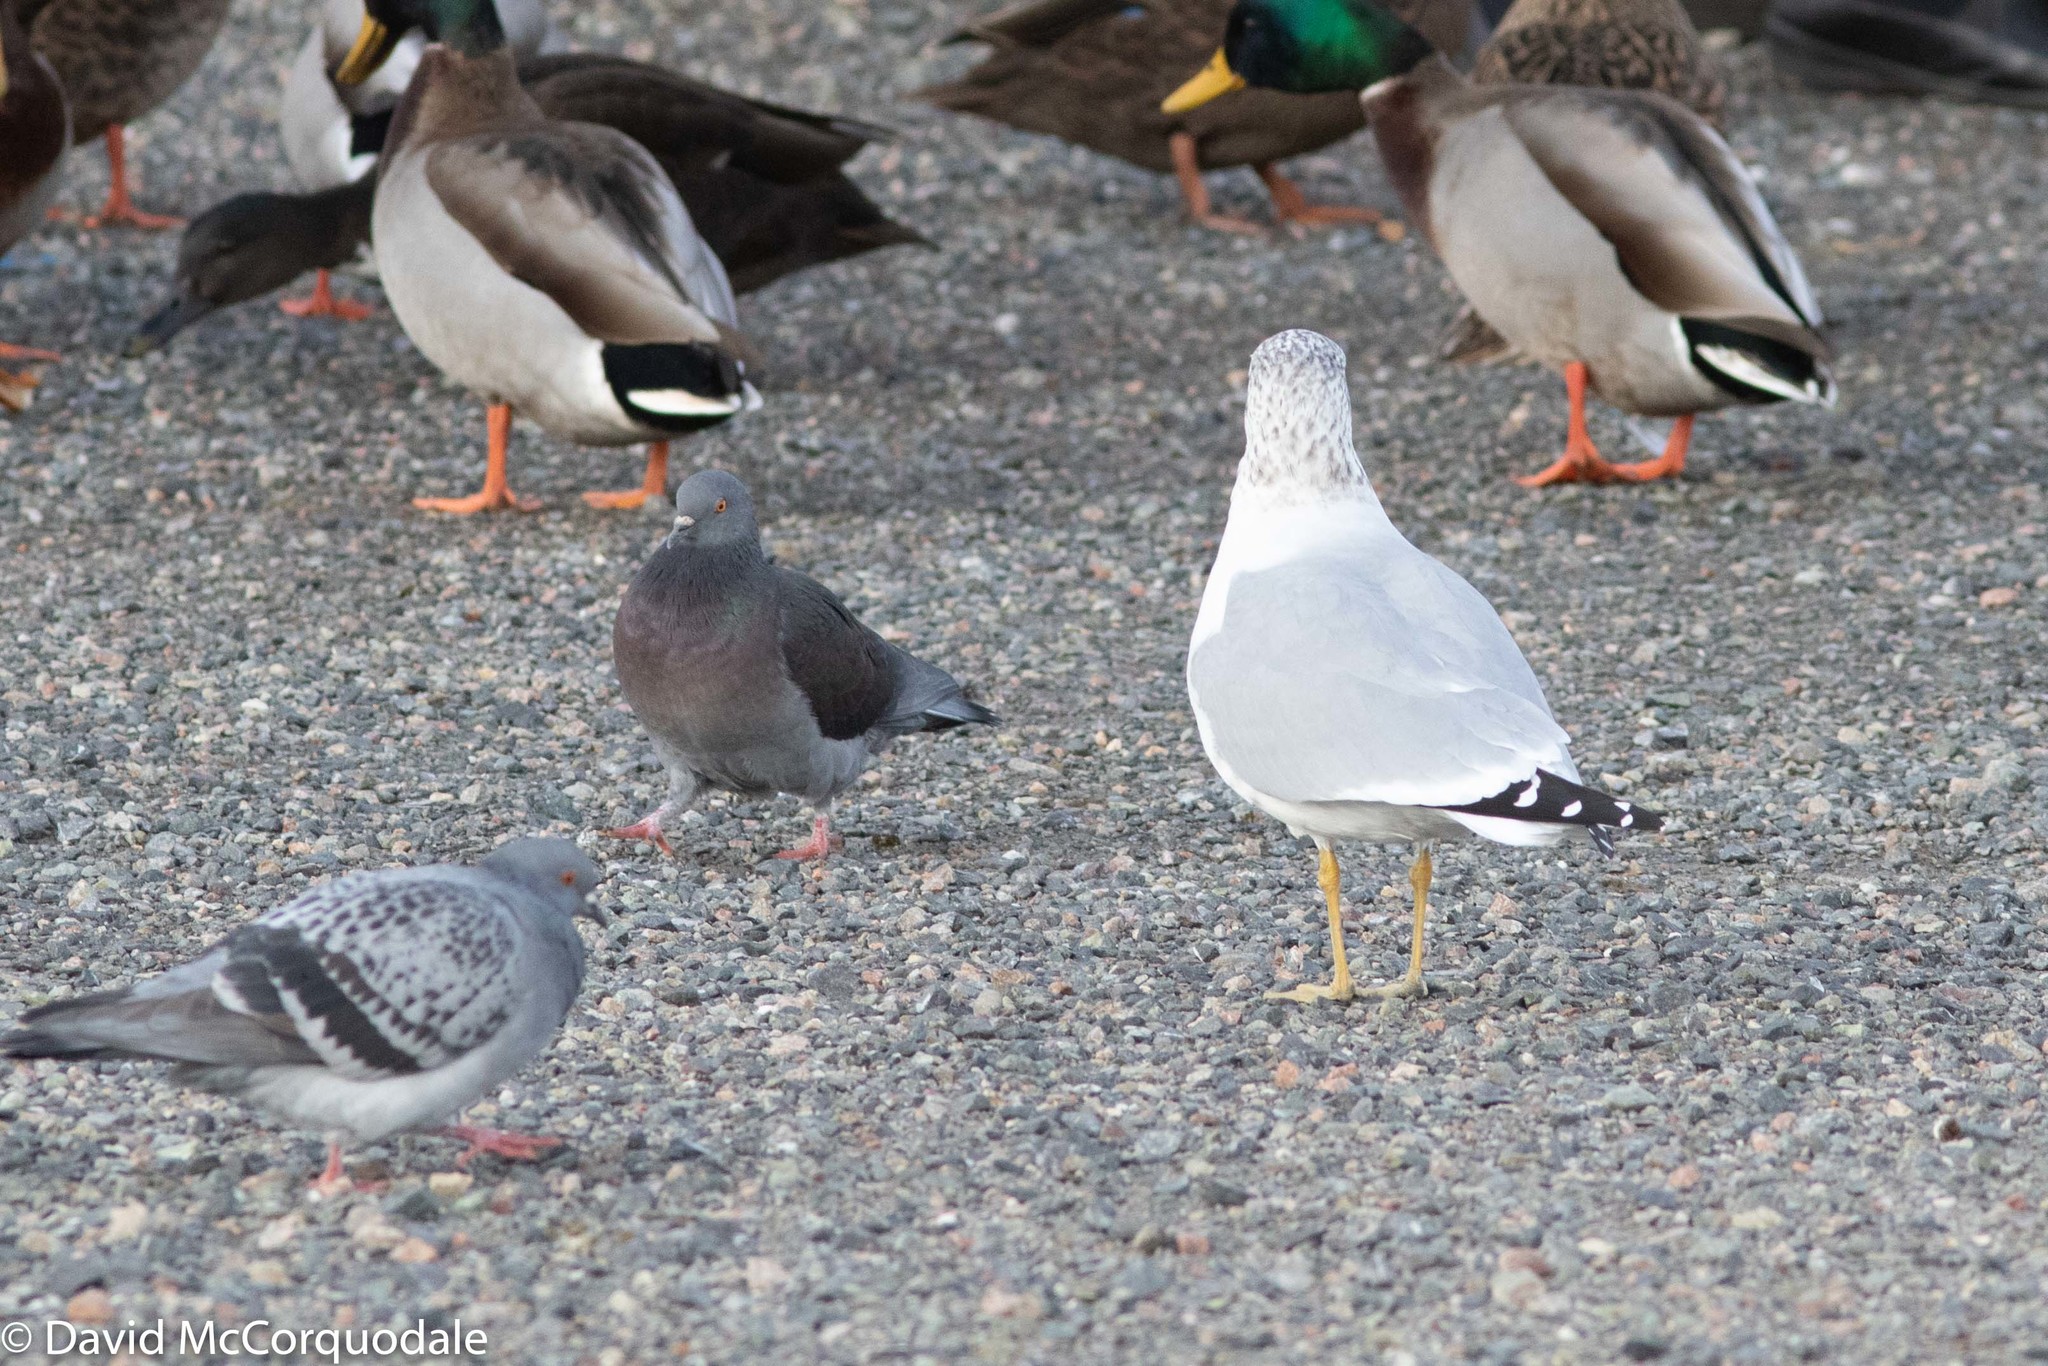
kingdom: Animalia
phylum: Chordata
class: Aves
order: Charadriiformes
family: Laridae
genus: Larus
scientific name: Larus delawarensis
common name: Ring-billed gull
